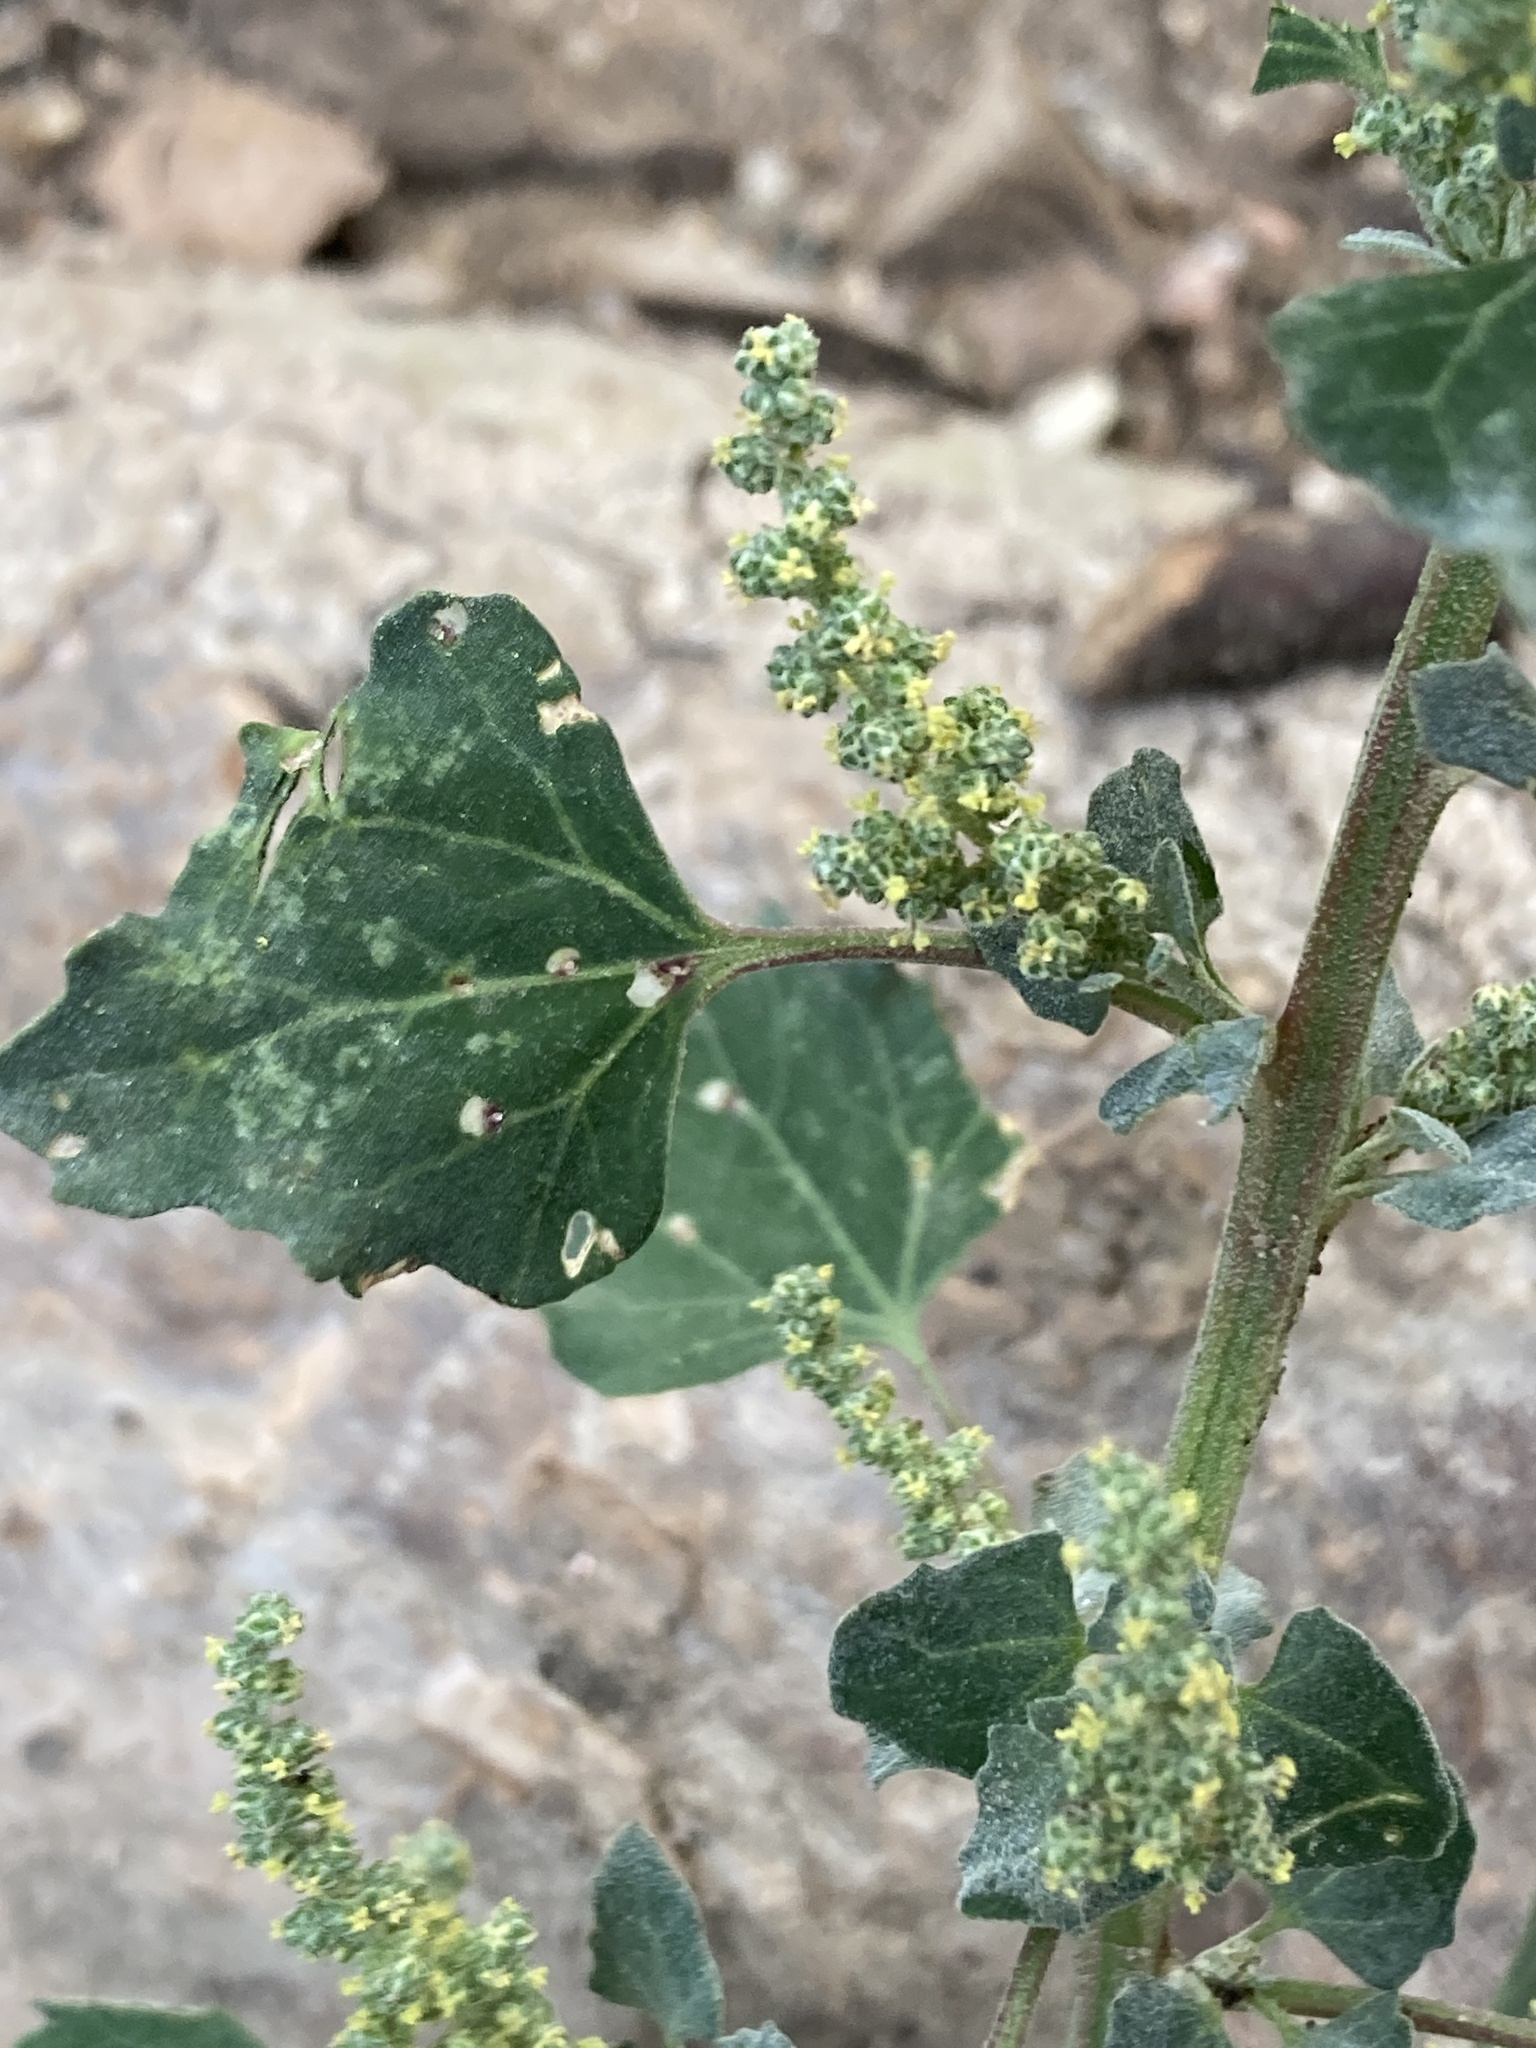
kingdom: Plantae
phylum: Tracheophyta
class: Magnoliopsida
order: Caryophyllales
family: Amaranthaceae
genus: Chenopodium
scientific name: Chenopodium album
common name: Fat-hen
